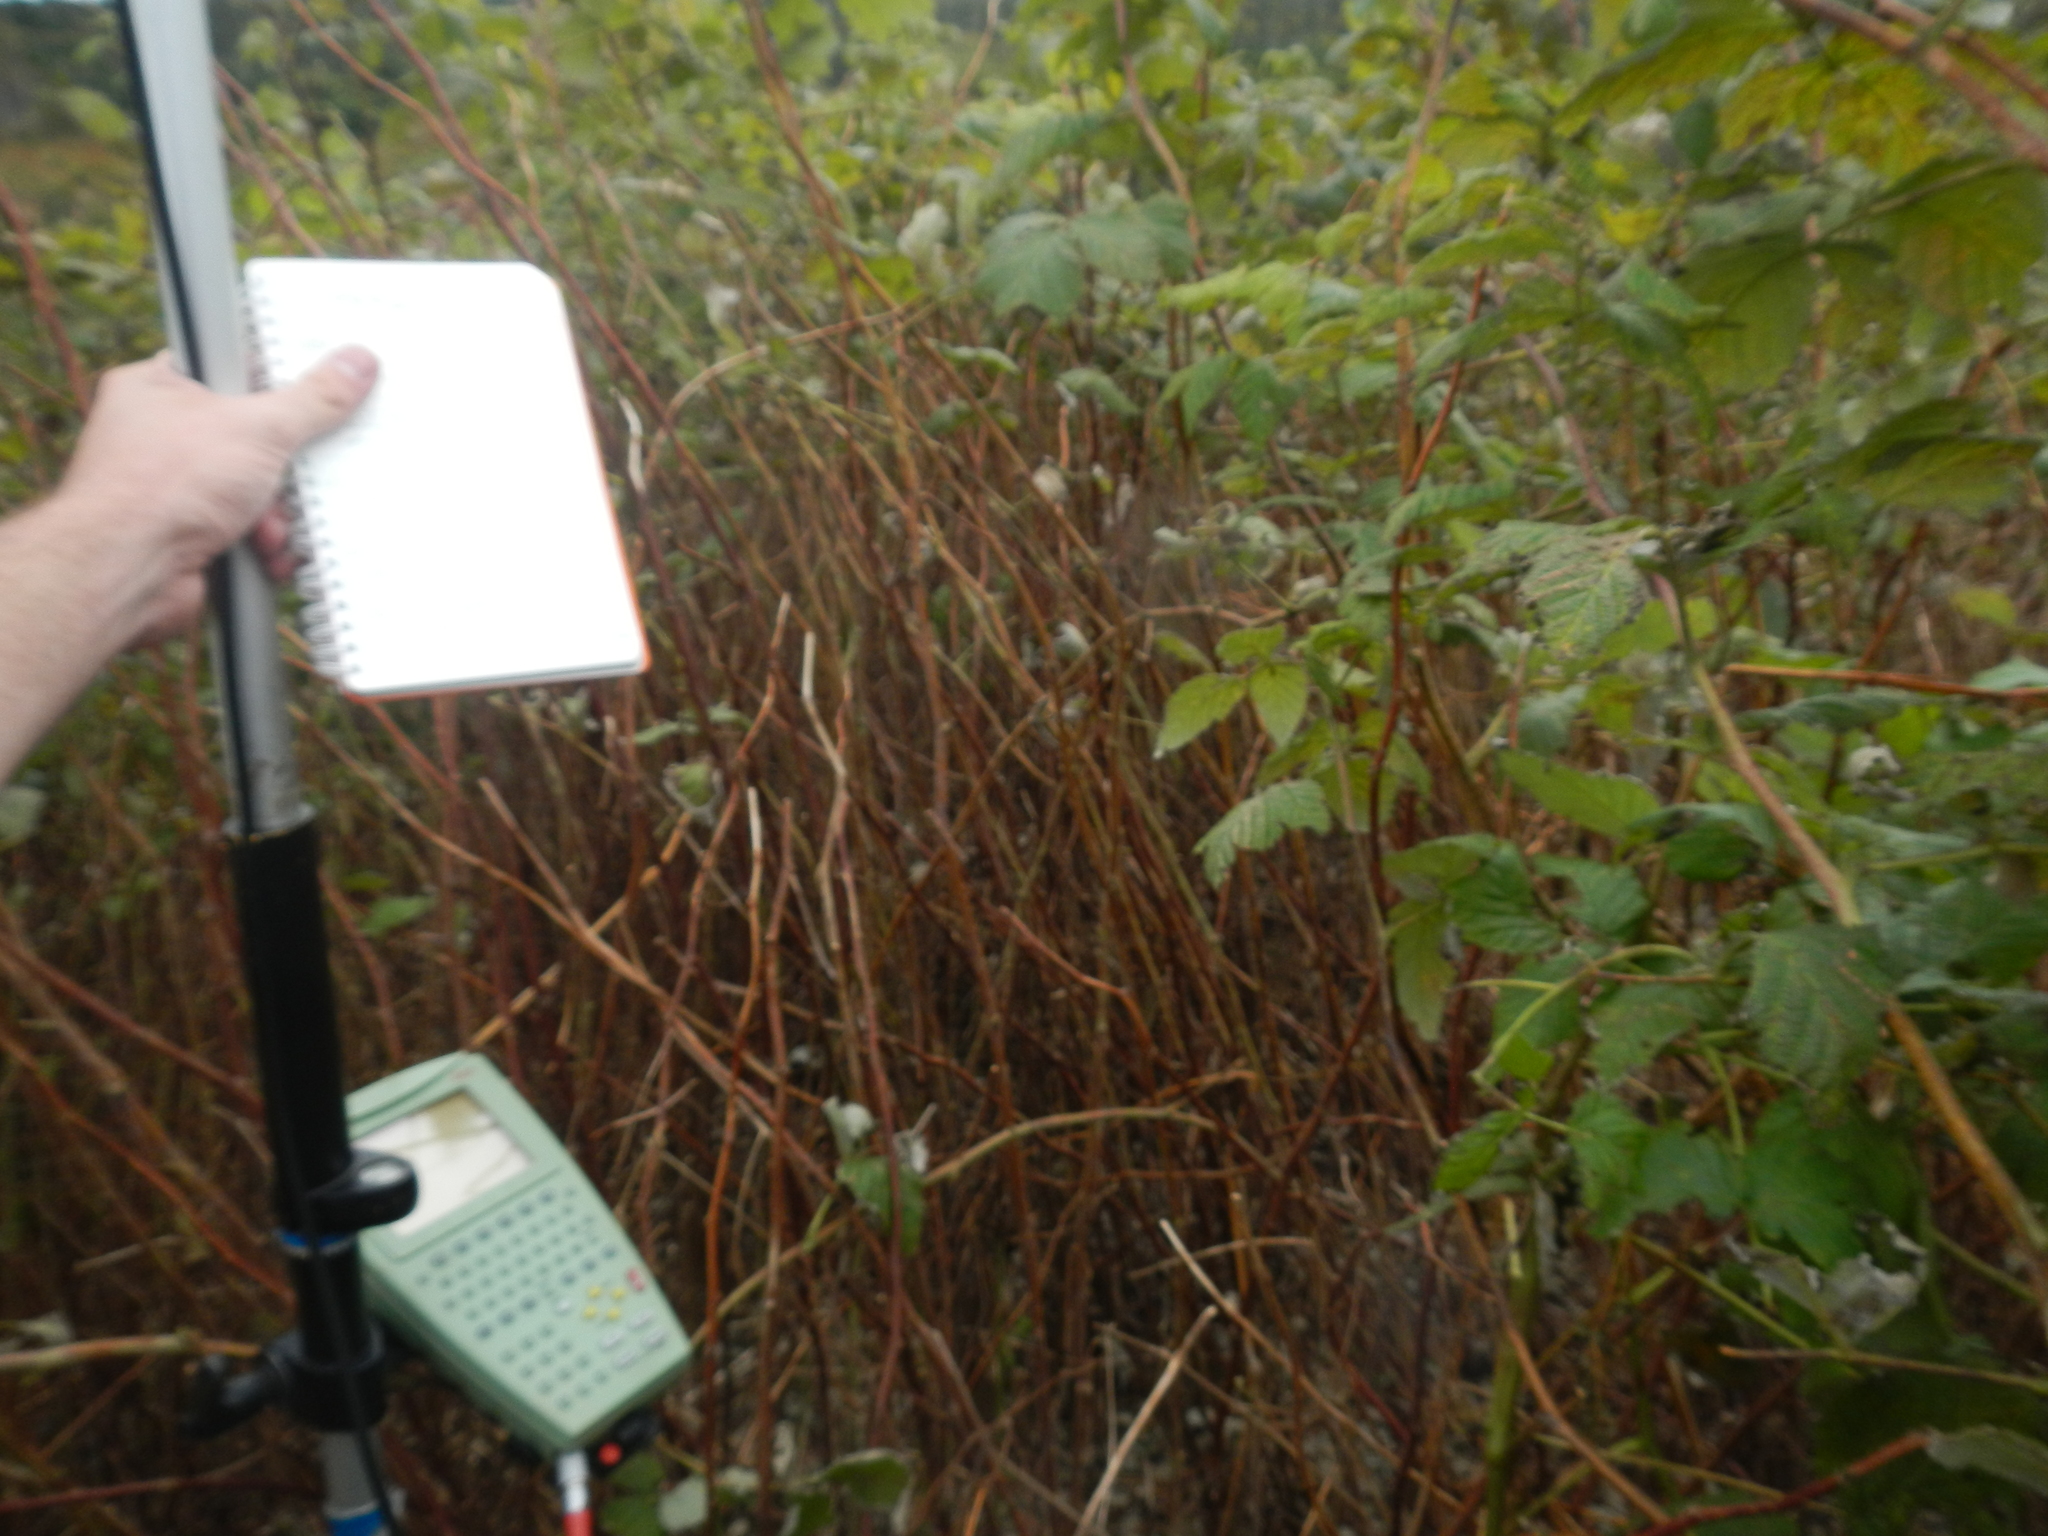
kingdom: Plantae
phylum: Tracheophyta
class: Magnoliopsida
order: Rosales
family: Rosaceae
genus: Rubus
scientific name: Rubus idaeus
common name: Raspberry
